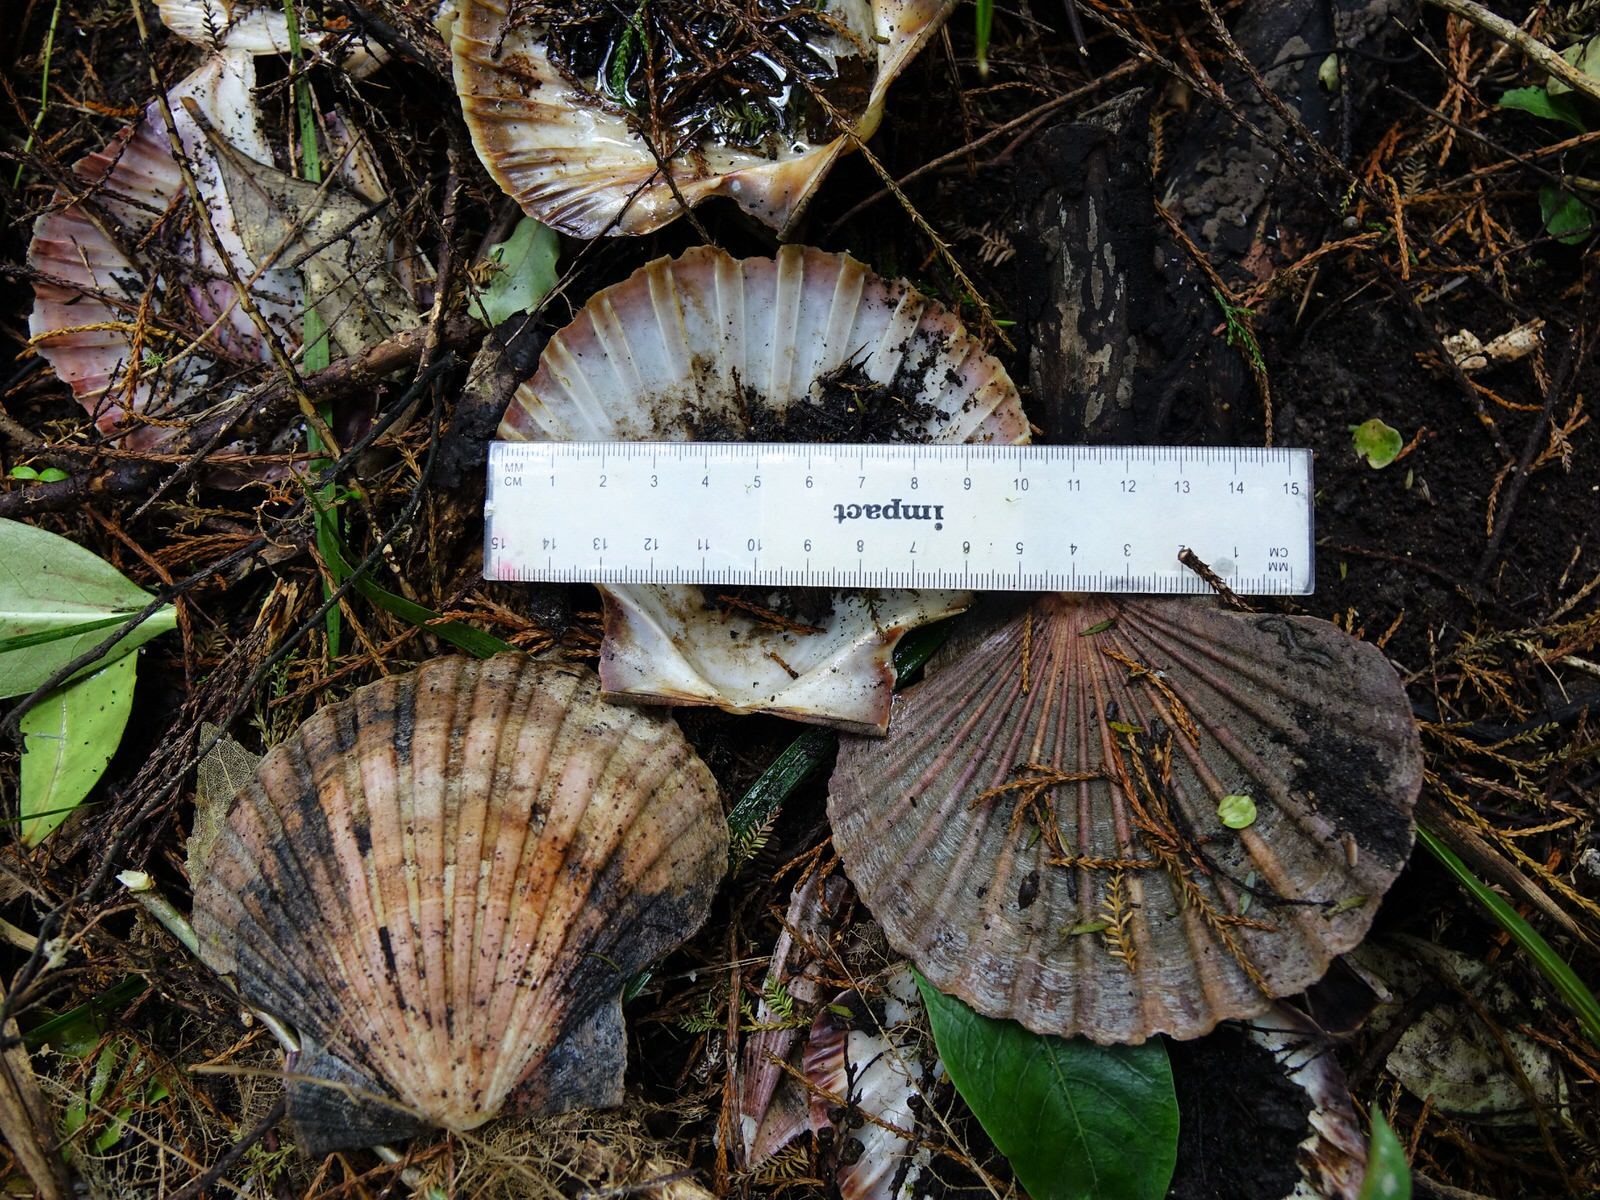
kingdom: Animalia
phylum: Mollusca
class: Bivalvia
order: Pectinida
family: Pectinidae
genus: Pecten
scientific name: Pecten novaezelandiae
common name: New zealand scallop
